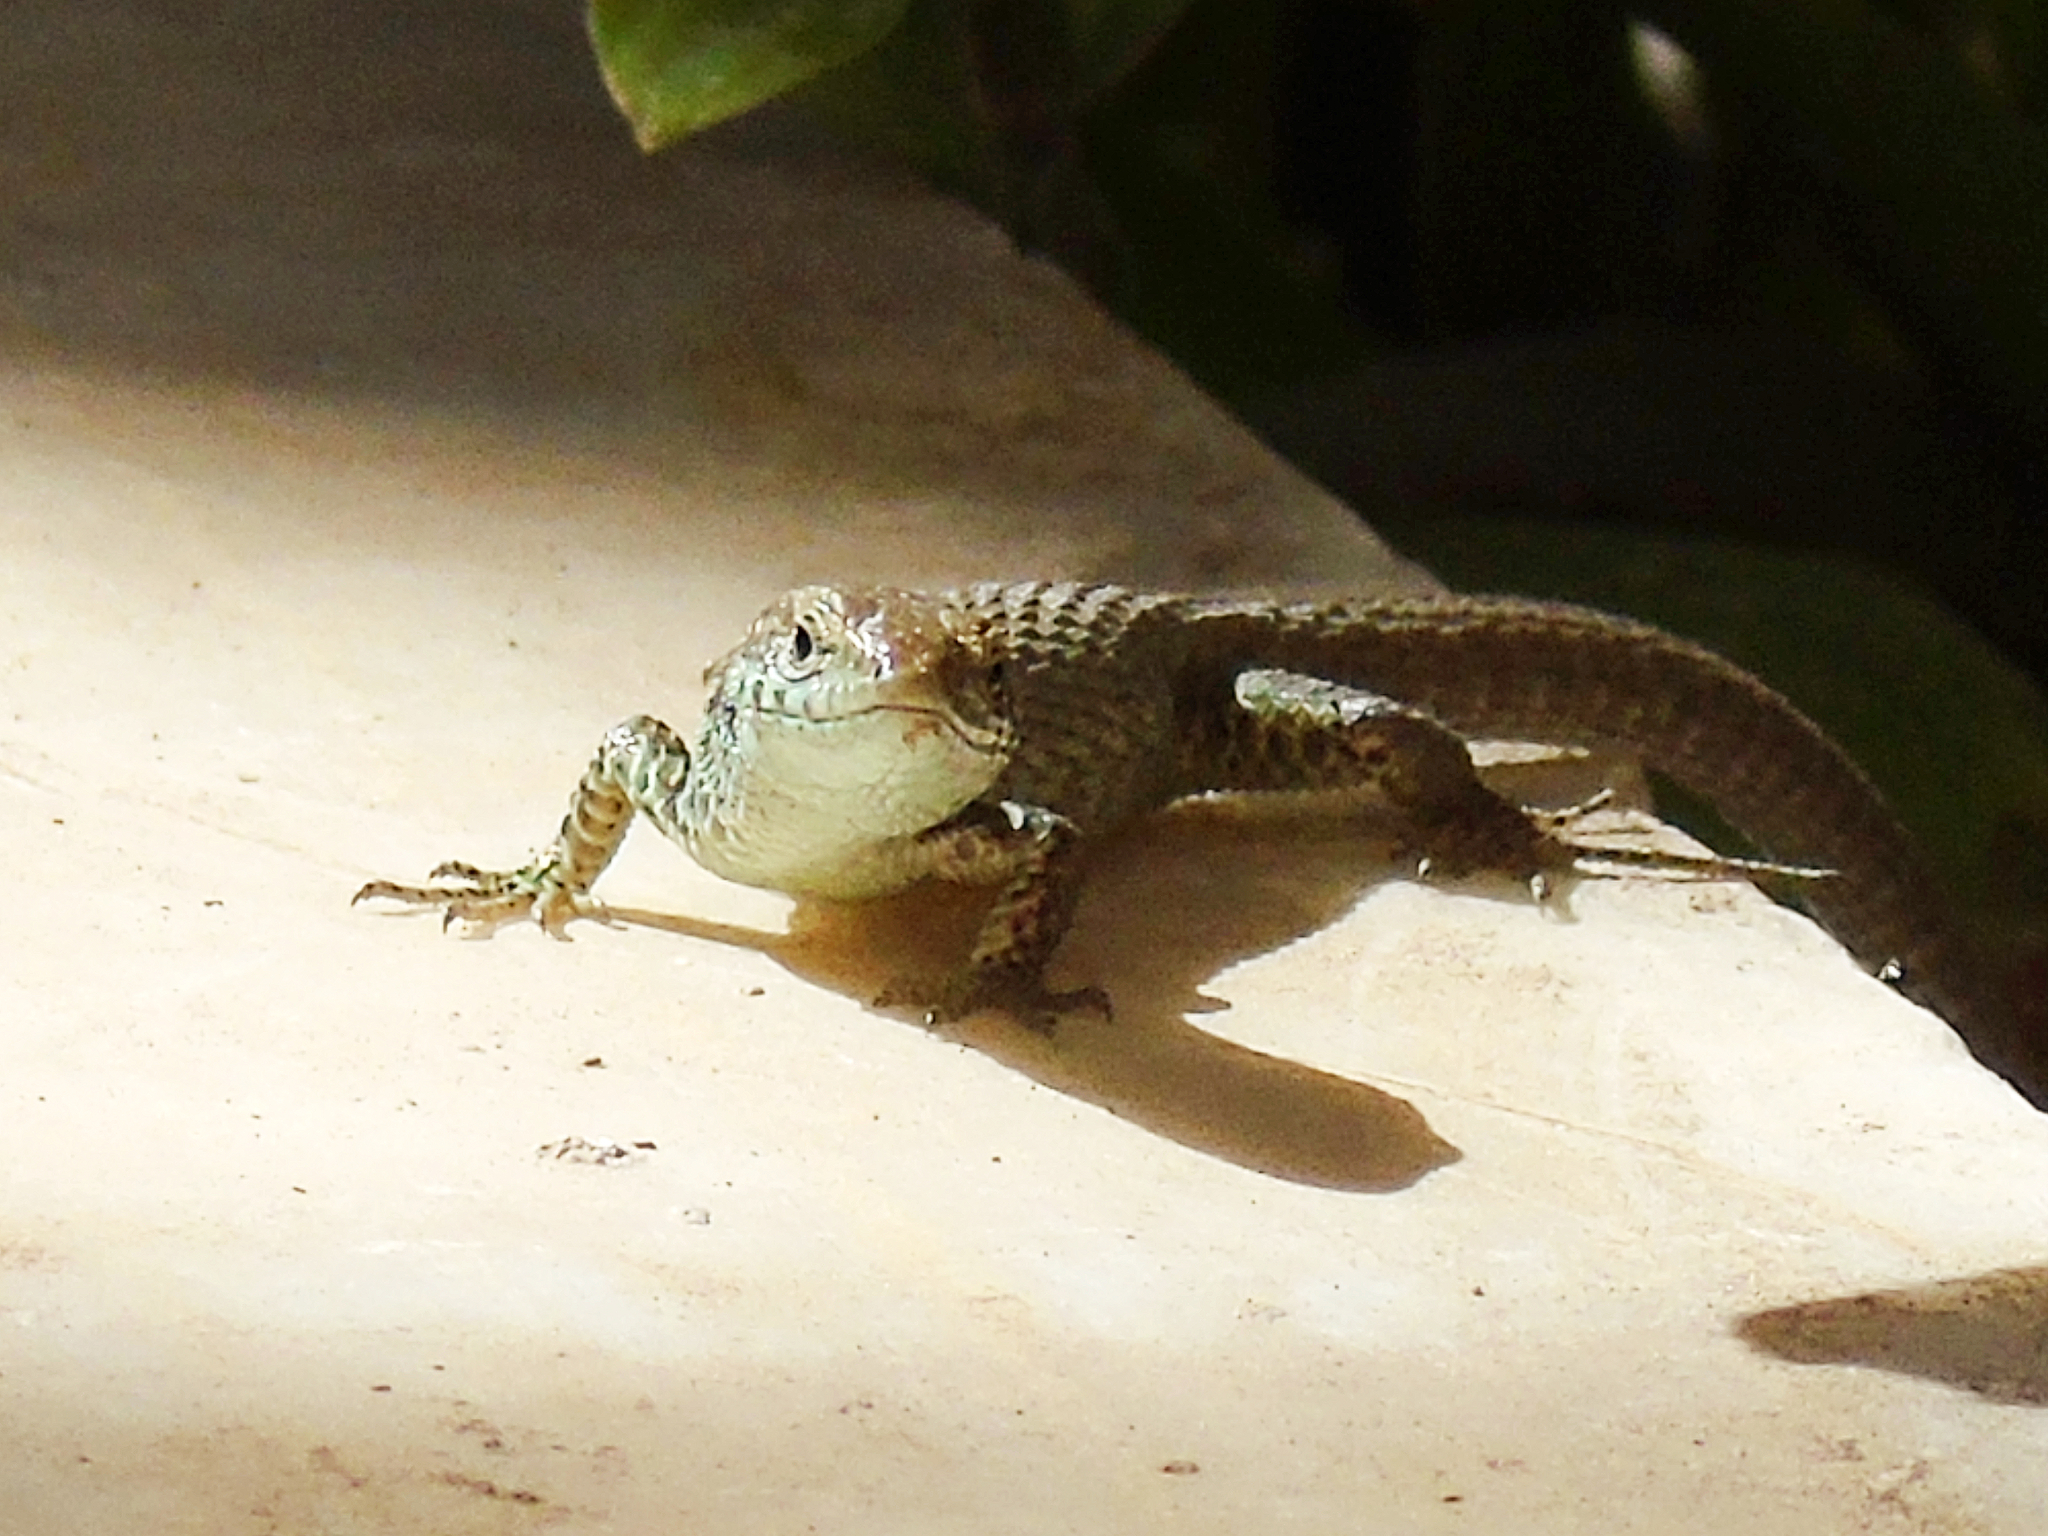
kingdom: Animalia
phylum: Chordata
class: Squamata
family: Lacertidae
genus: Algyroides
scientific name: Algyroides moreoticus
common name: Greek algyroides
